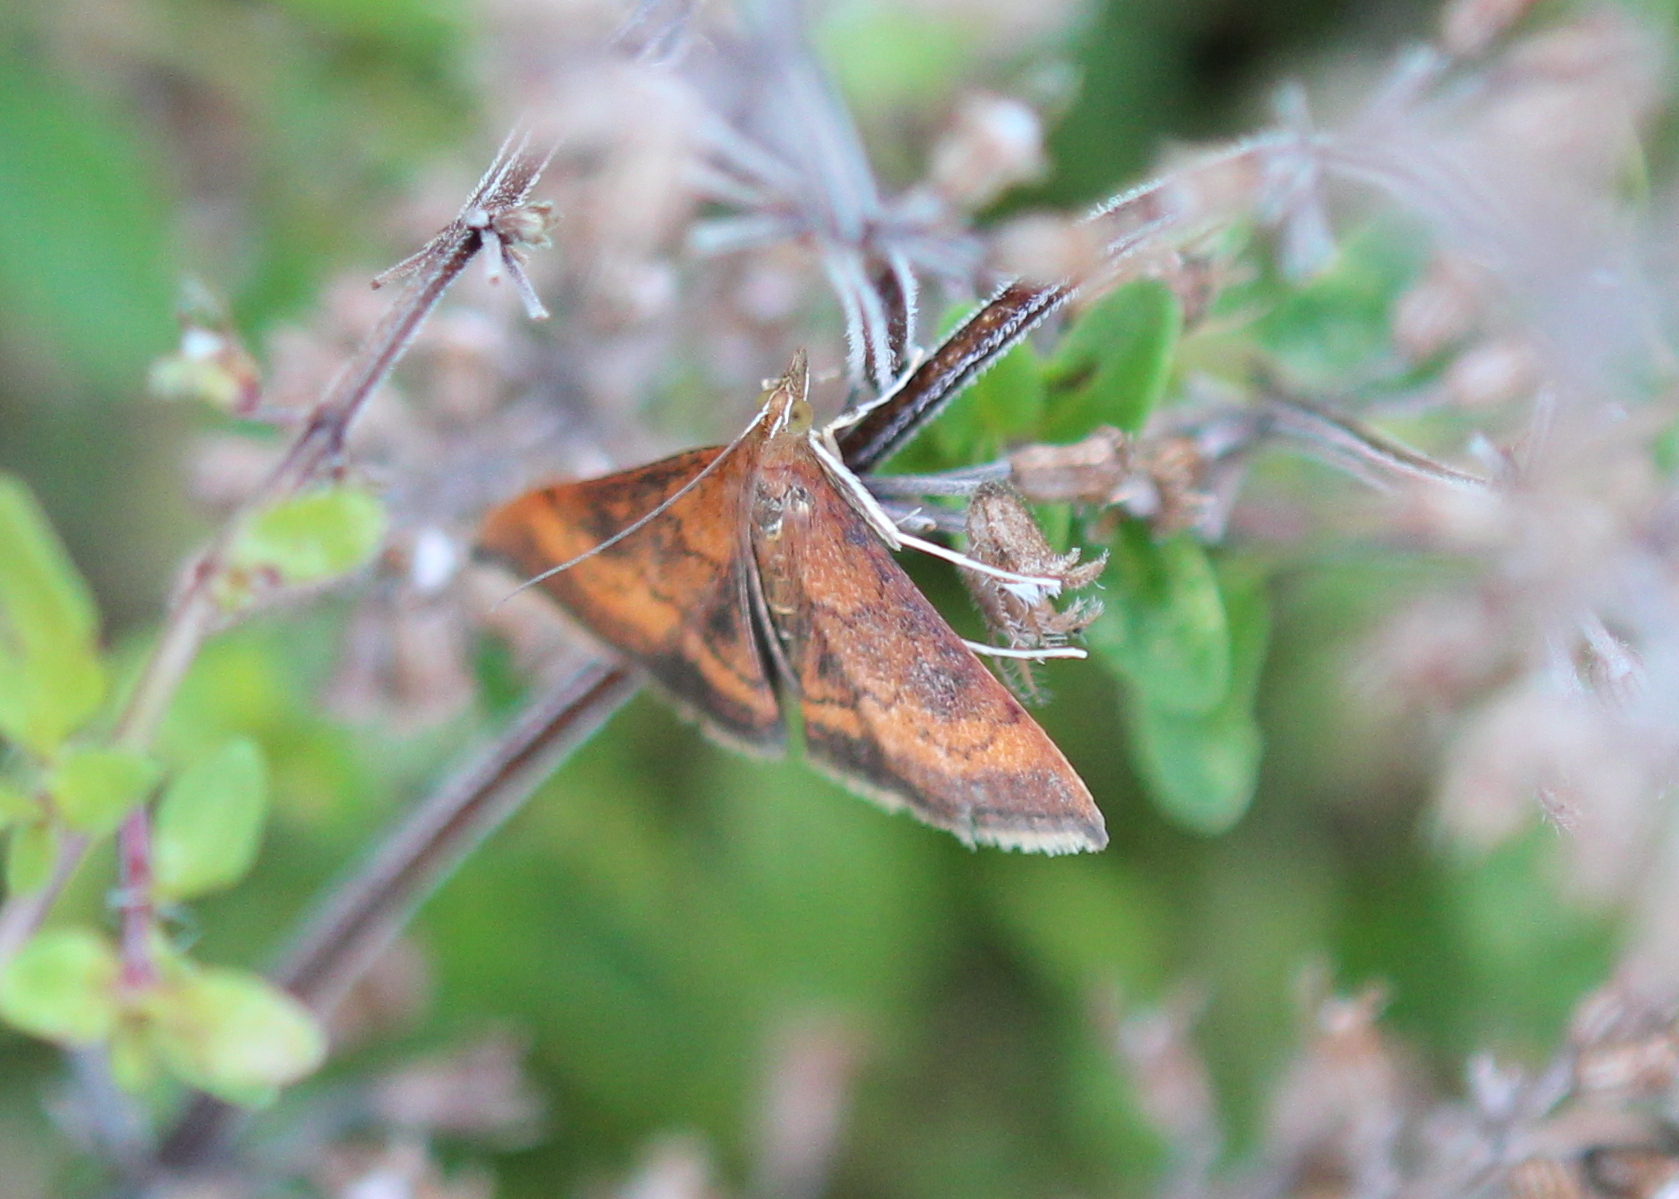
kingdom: Animalia
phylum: Arthropoda
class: Insecta
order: Lepidoptera
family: Crambidae
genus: Pyrausta
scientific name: Pyrausta rubricalis
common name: Variable reddish pyrausta
